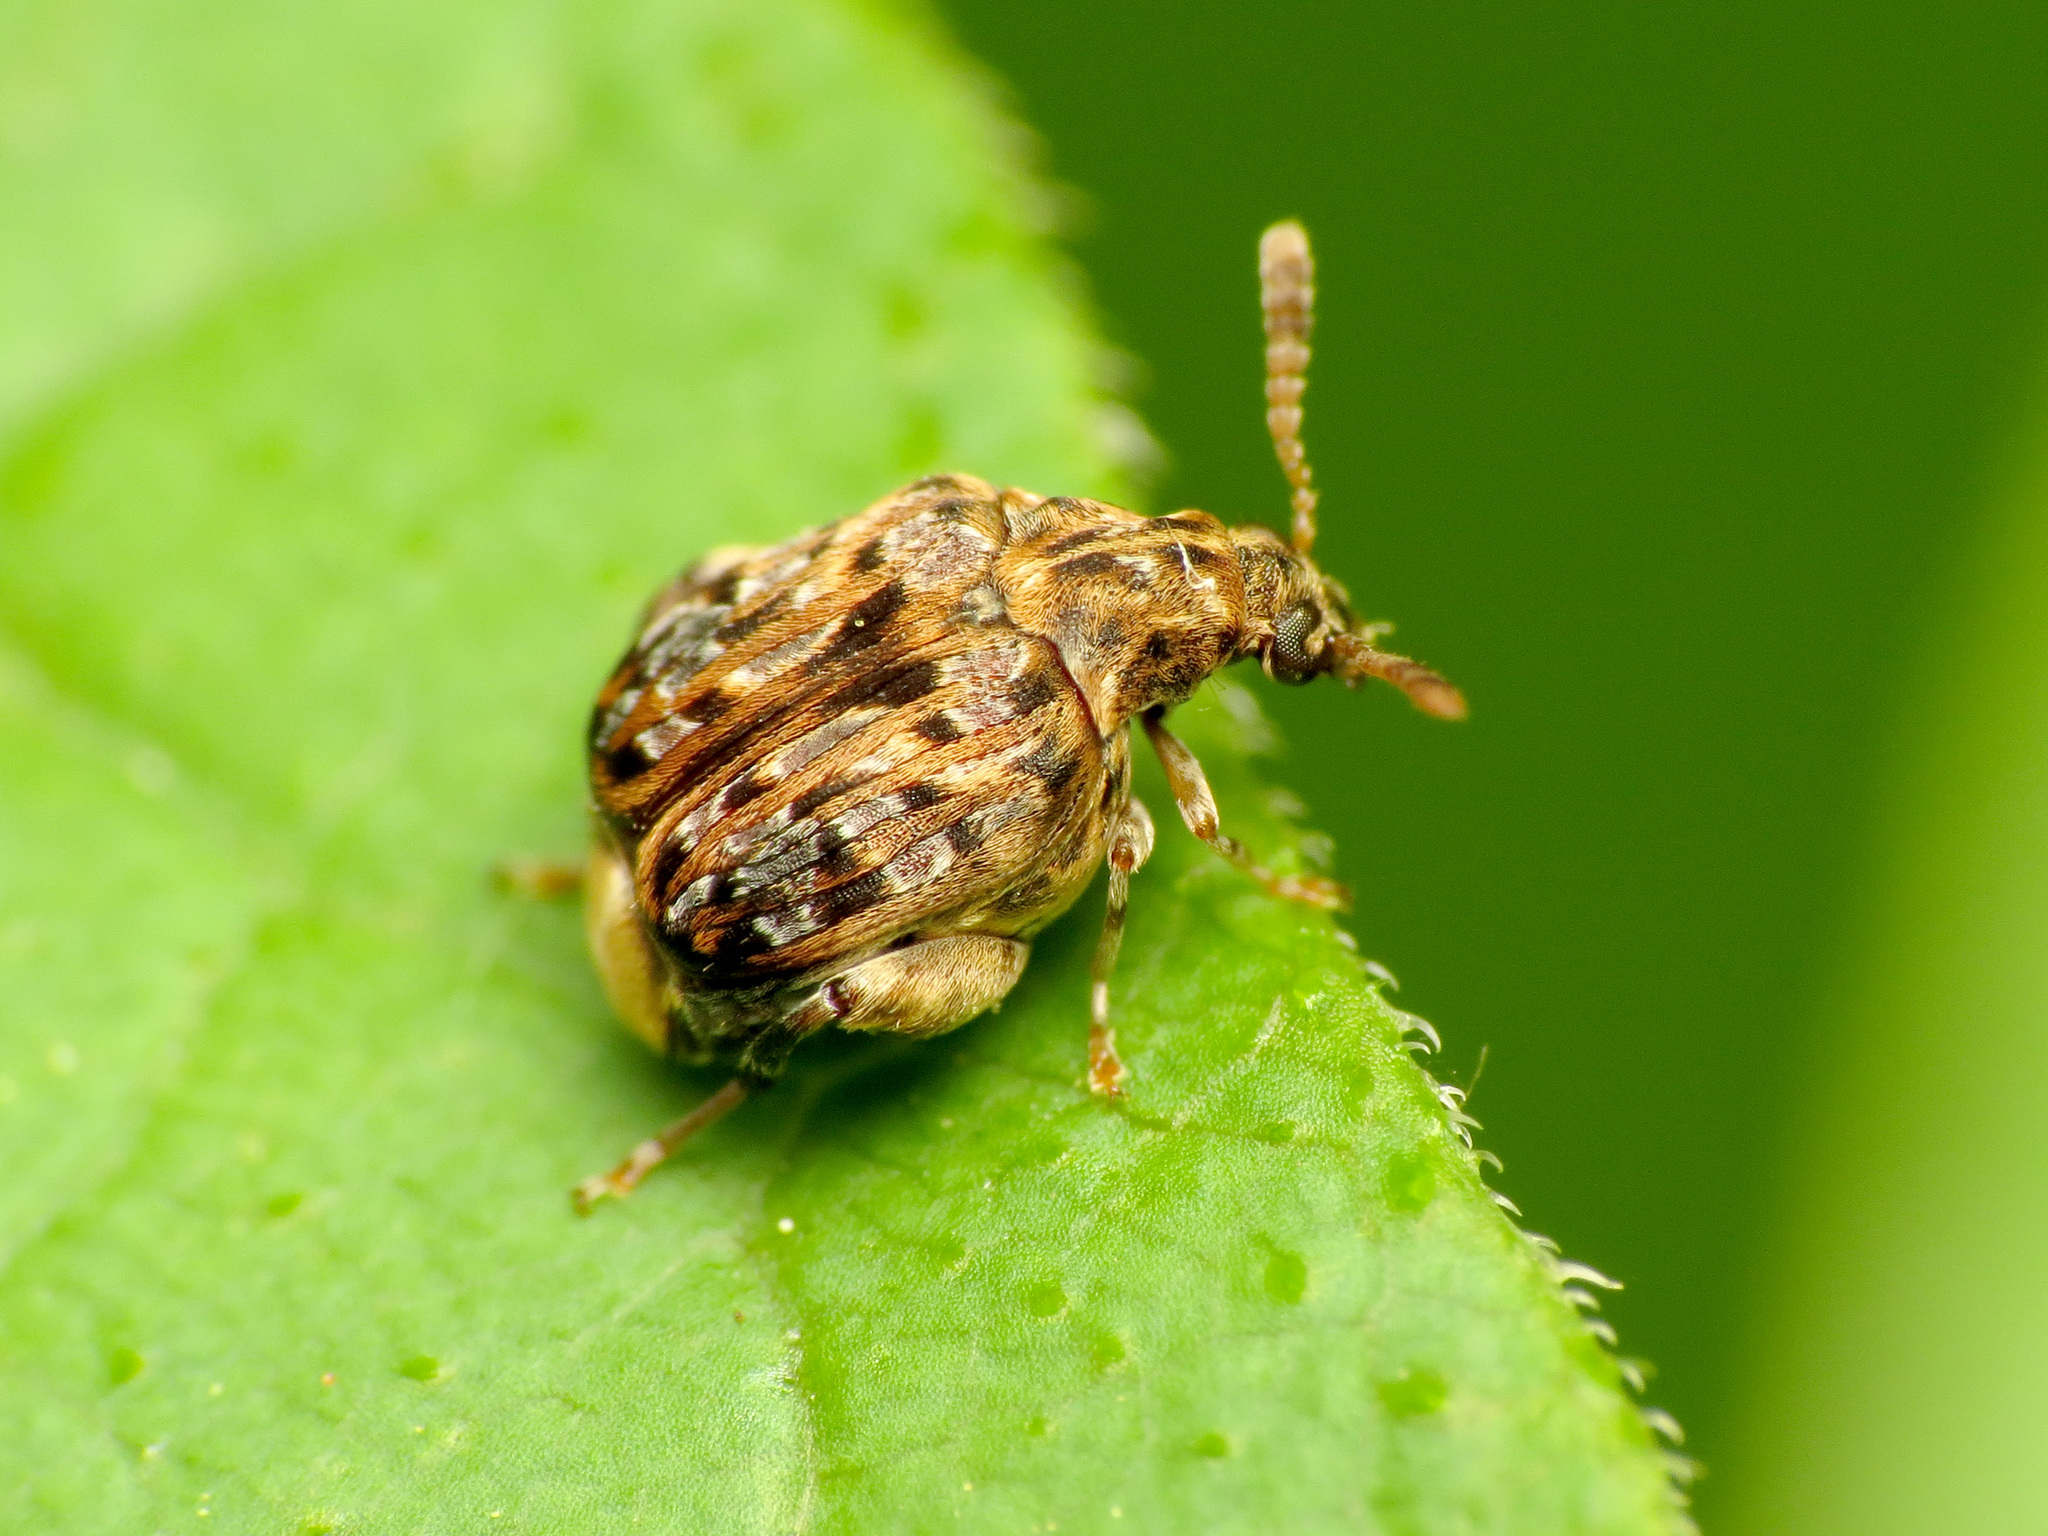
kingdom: Animalia
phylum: Arthropoda
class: Insecta
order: Coleoptera
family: Chrysomelidae
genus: Gibbobruchus
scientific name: Gibbobruchus mimus
